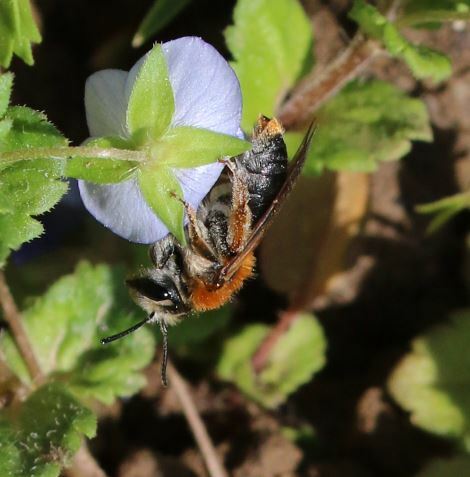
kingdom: Animalia
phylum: Arthropoda
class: Insecta
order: Hymenoptera
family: Andrenidae
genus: Andrena
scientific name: Andrena haemorrhoa
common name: Early mining bee
